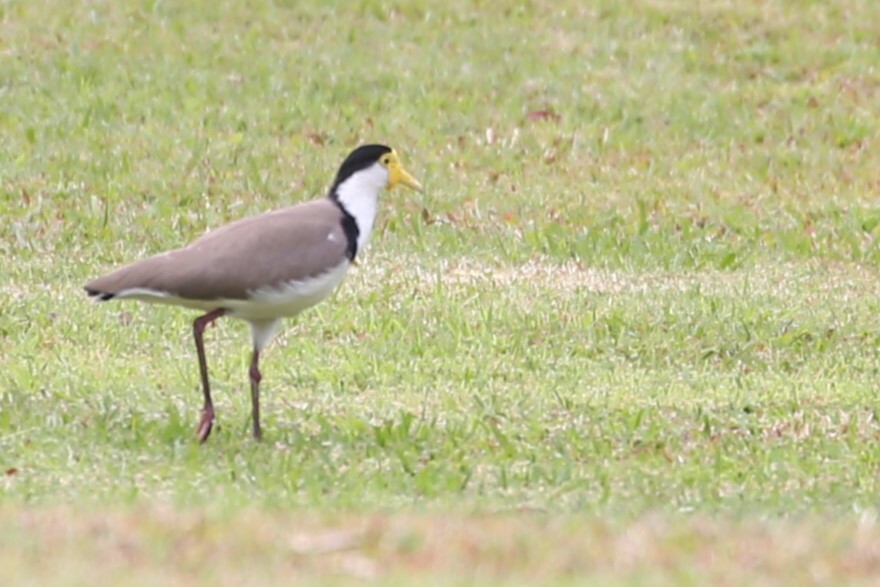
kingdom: Animalia
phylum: Chordata
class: Aves
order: Charadriiformes
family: Charadriidae
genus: Vanellus
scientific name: Vanellus miles
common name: Masked lapwing
